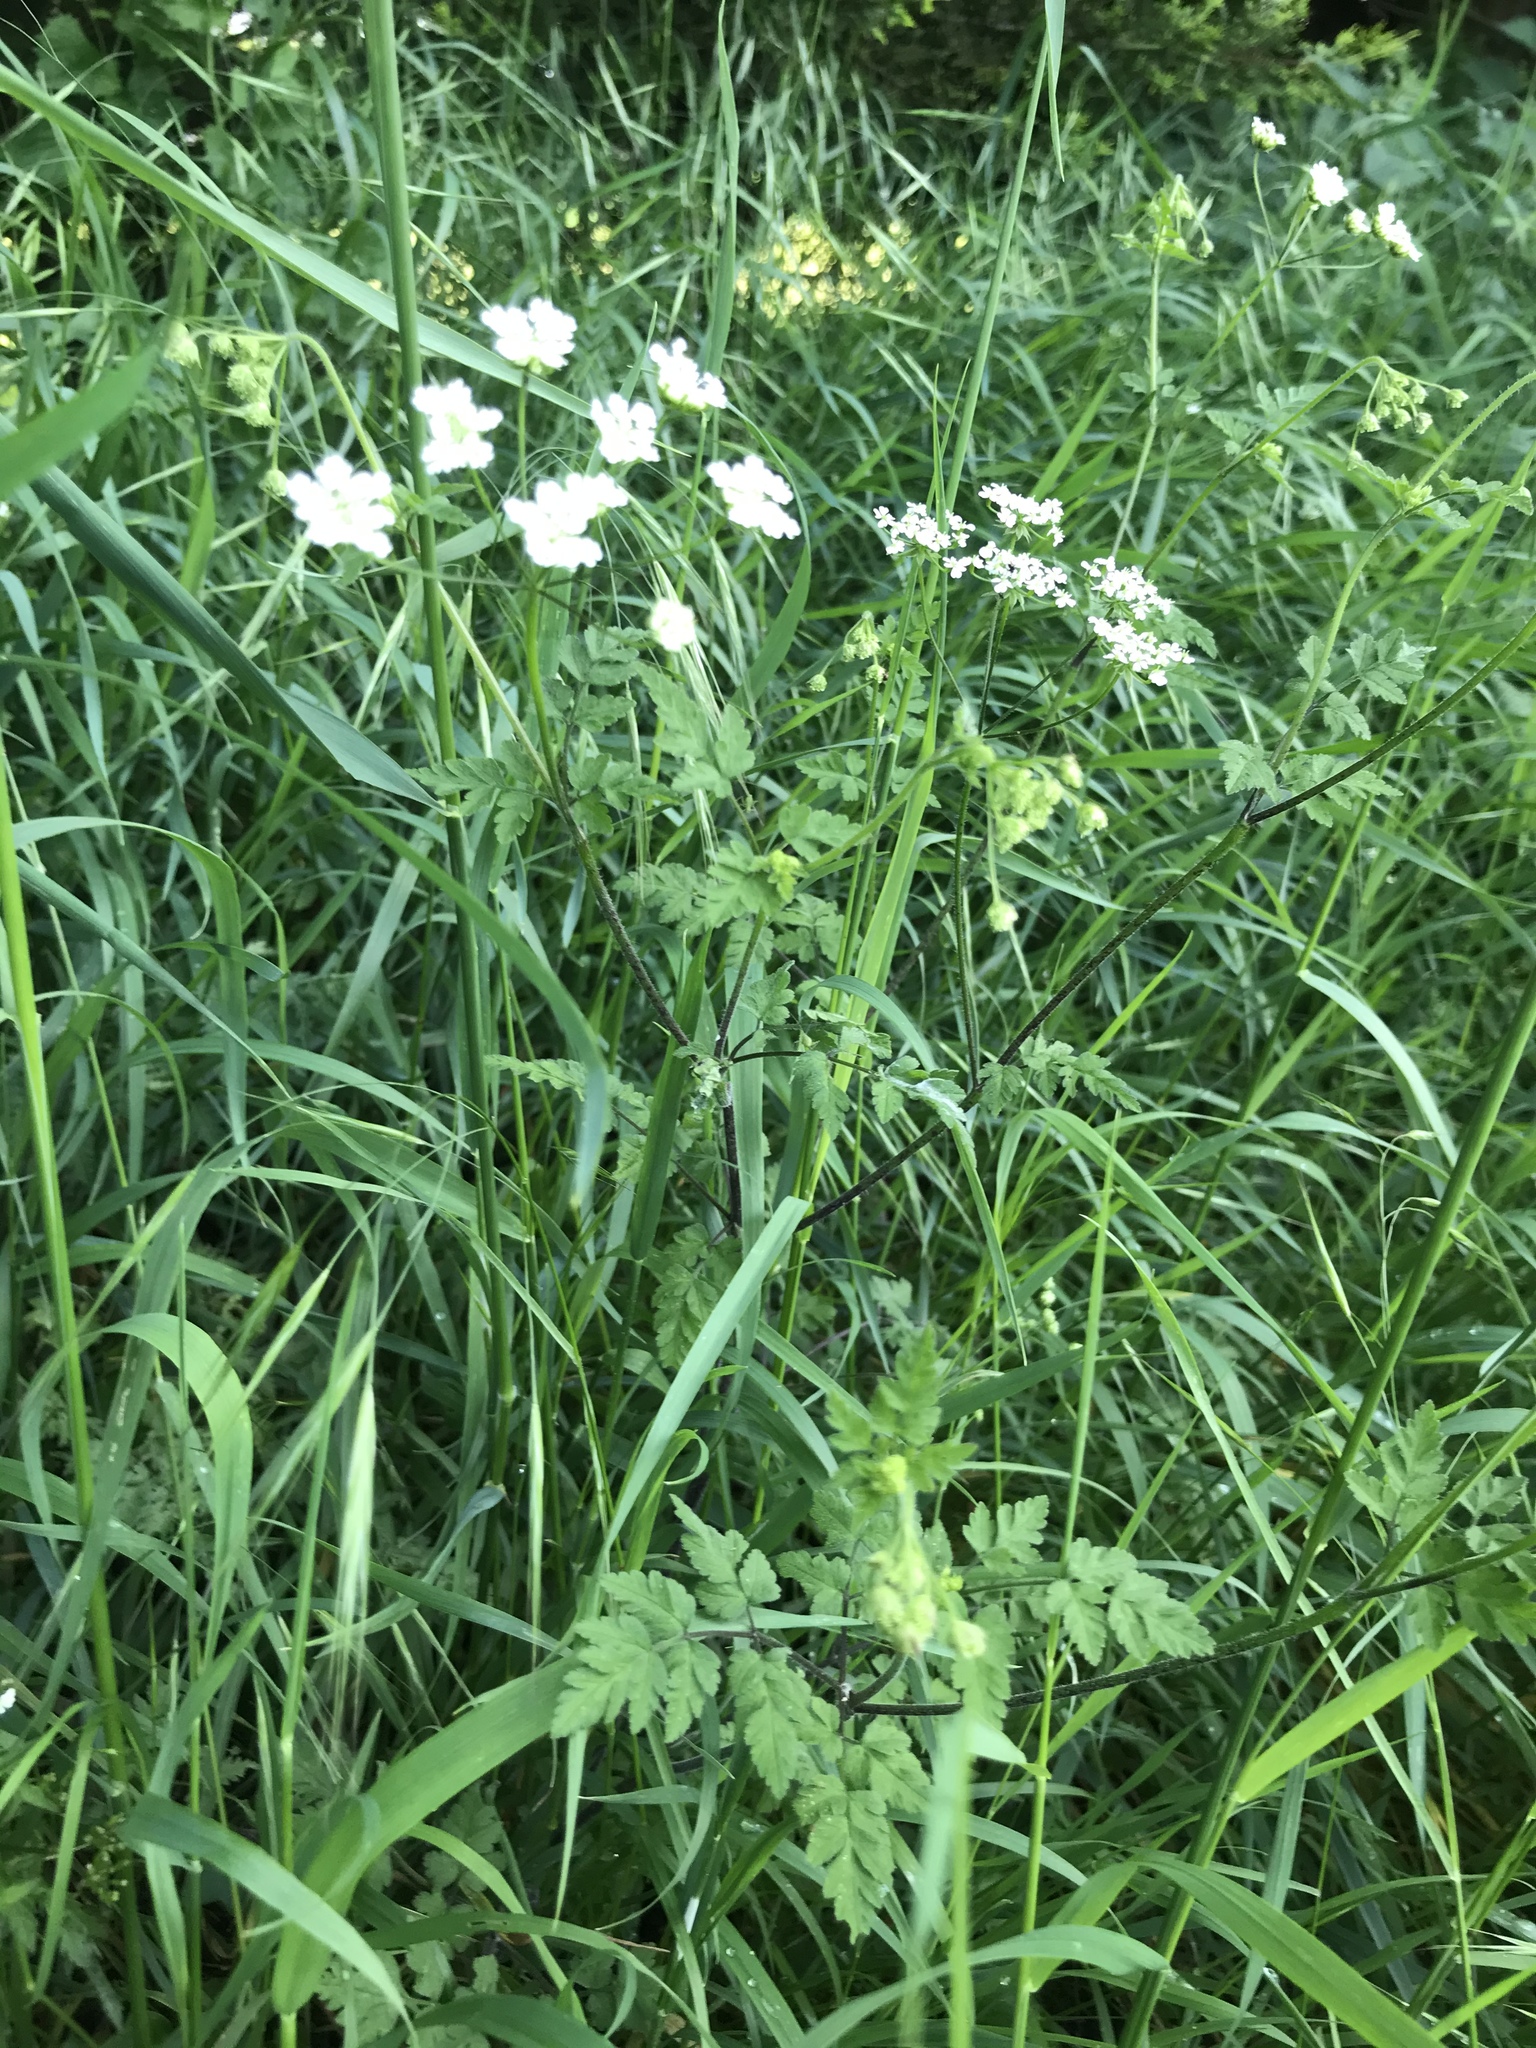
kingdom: Plantae
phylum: Tracheophyta
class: Magnoliopsida
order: Apiales
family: Apiaceae
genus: Chaerophyllum
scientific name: Chaerophyllum temulum
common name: Rough chervil
